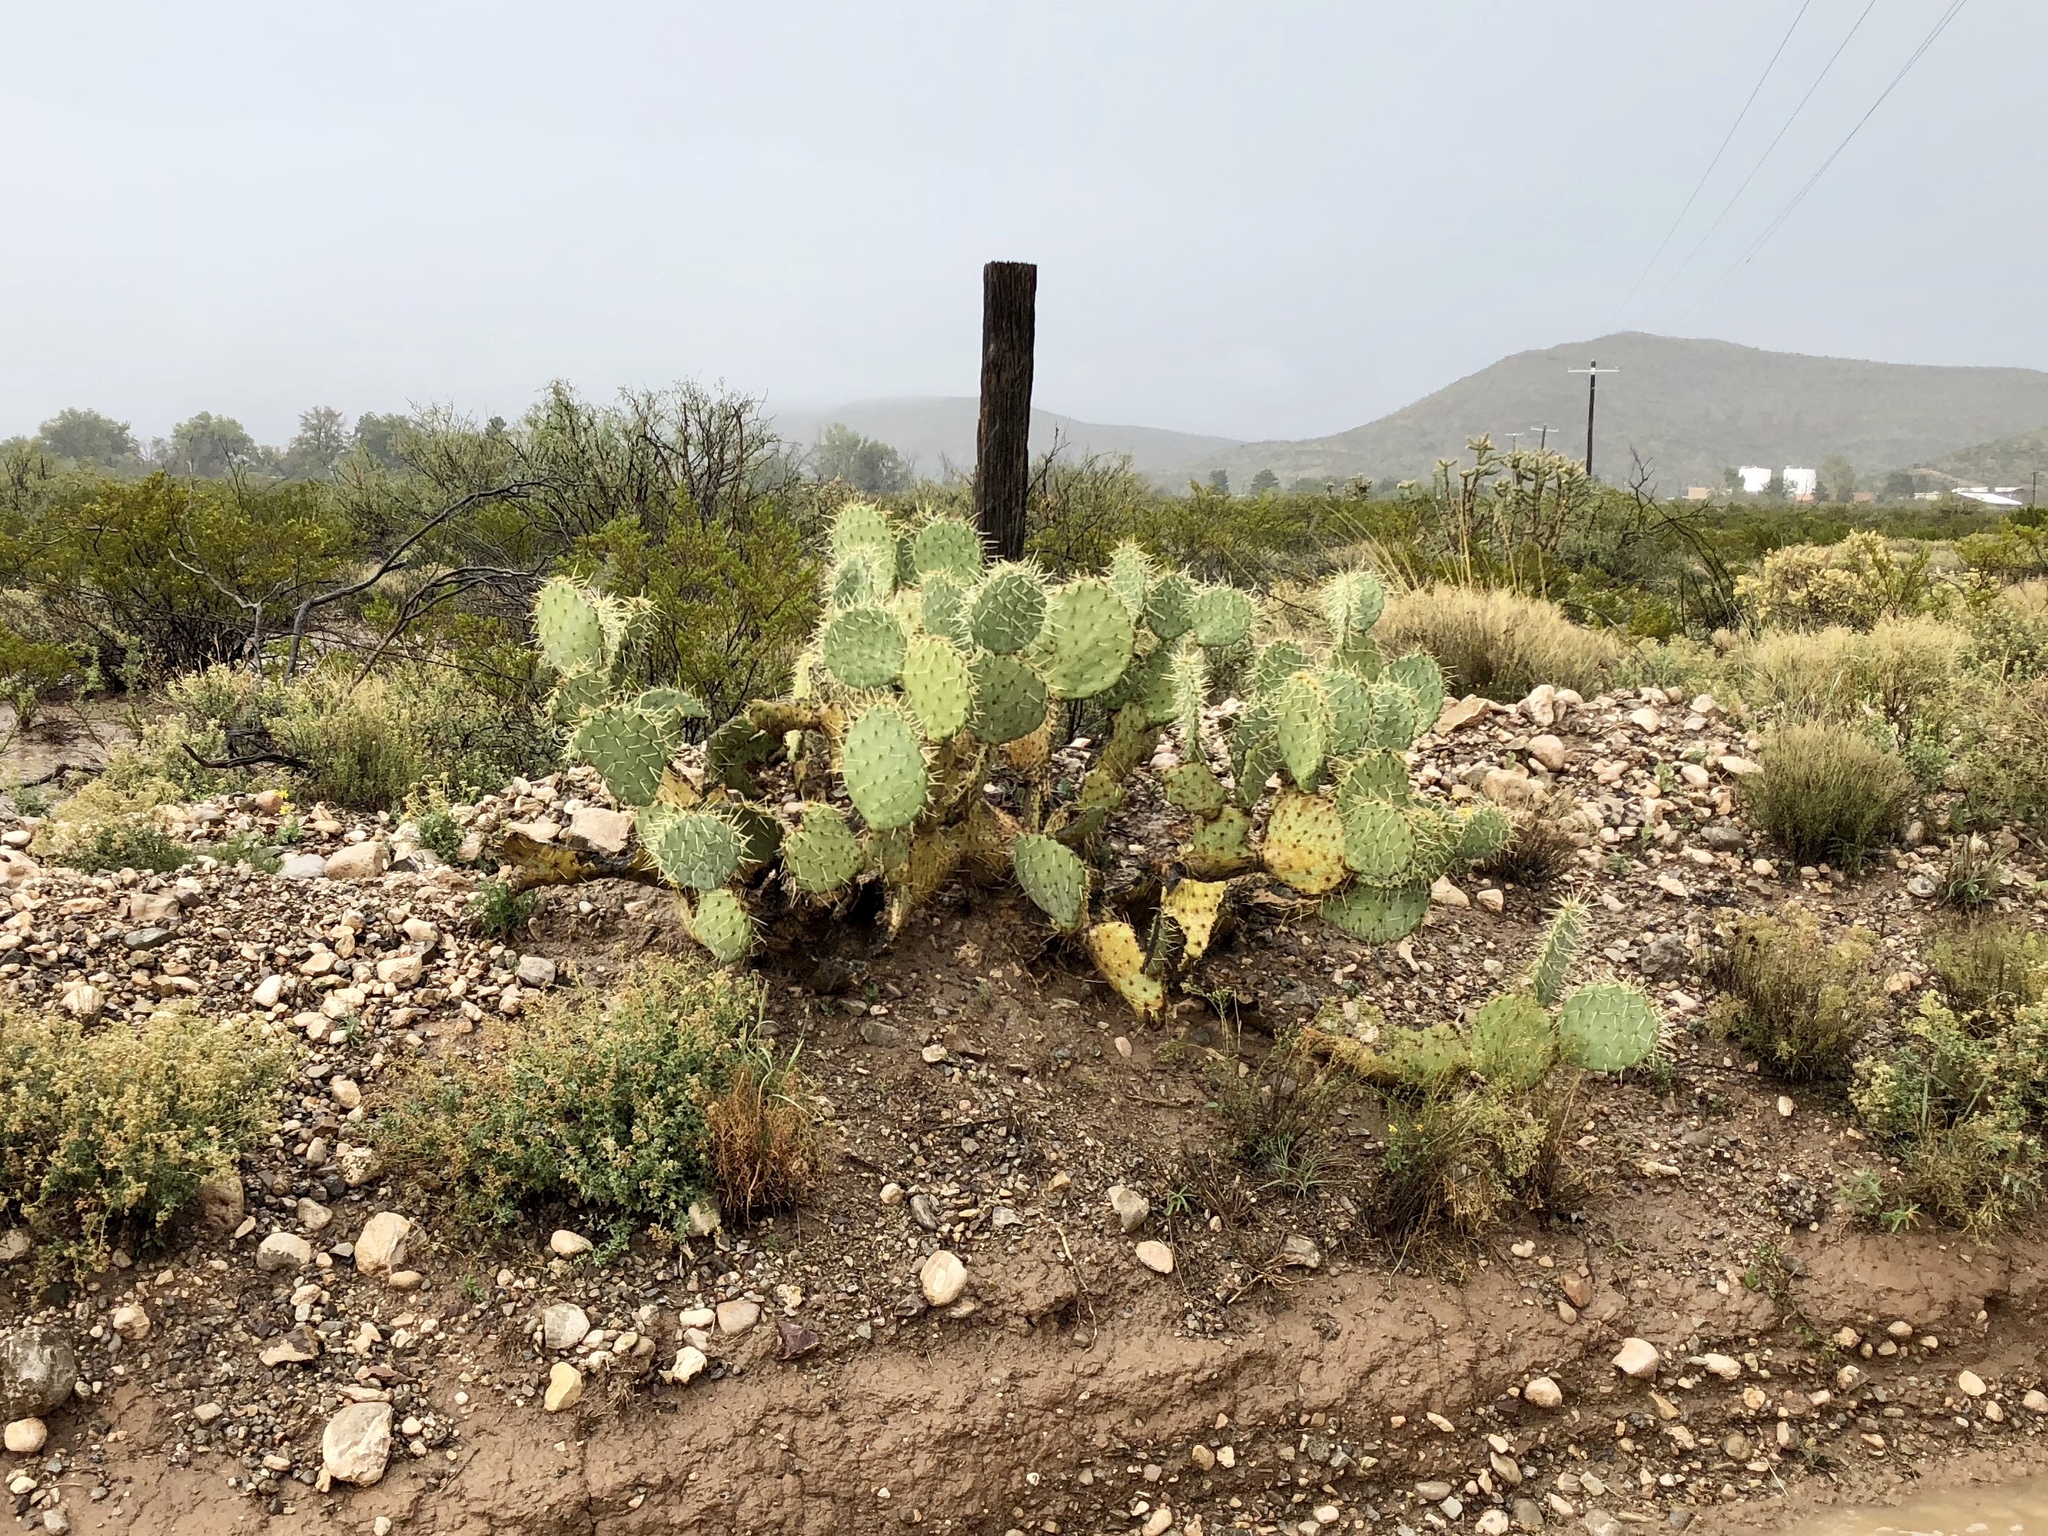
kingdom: Plantae
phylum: Tracheophyta
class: Magnoliopsida
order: Caryophyllales
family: Cactaceae
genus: Opuntia
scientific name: Opuntia engelmannii
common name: Cactus-apple
